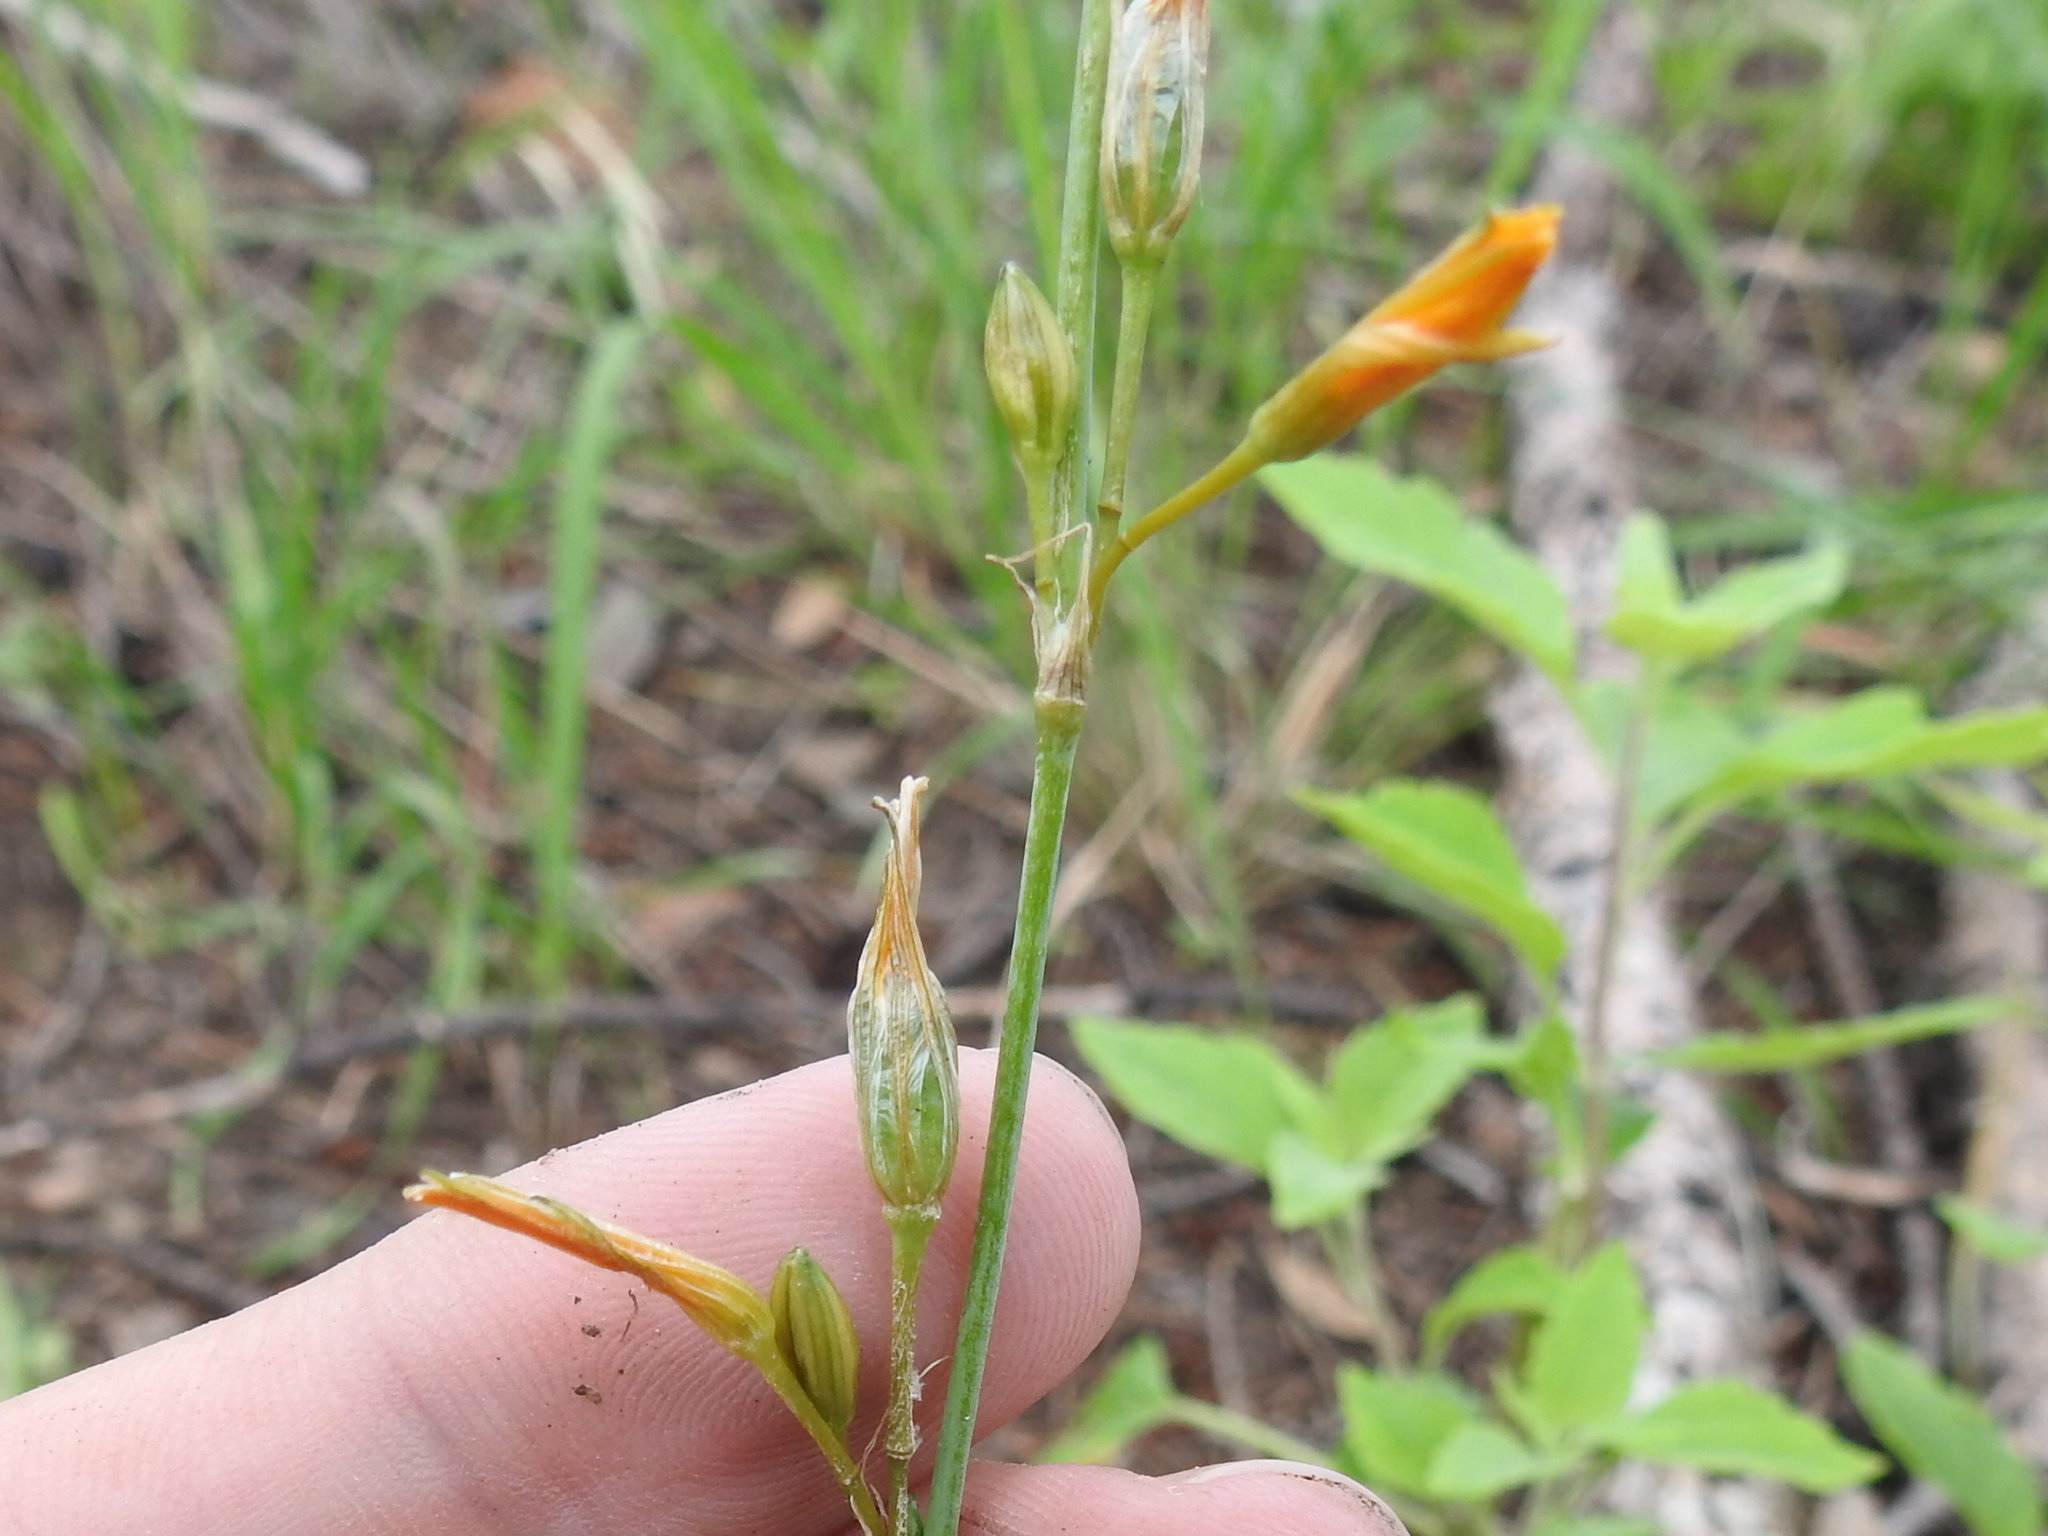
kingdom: Plantae
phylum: Tracheophyta
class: Liliopsida
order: Asparagales
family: Asparagaceae
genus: Echeandia
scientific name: Echeandia flavescens
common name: Amberlily
